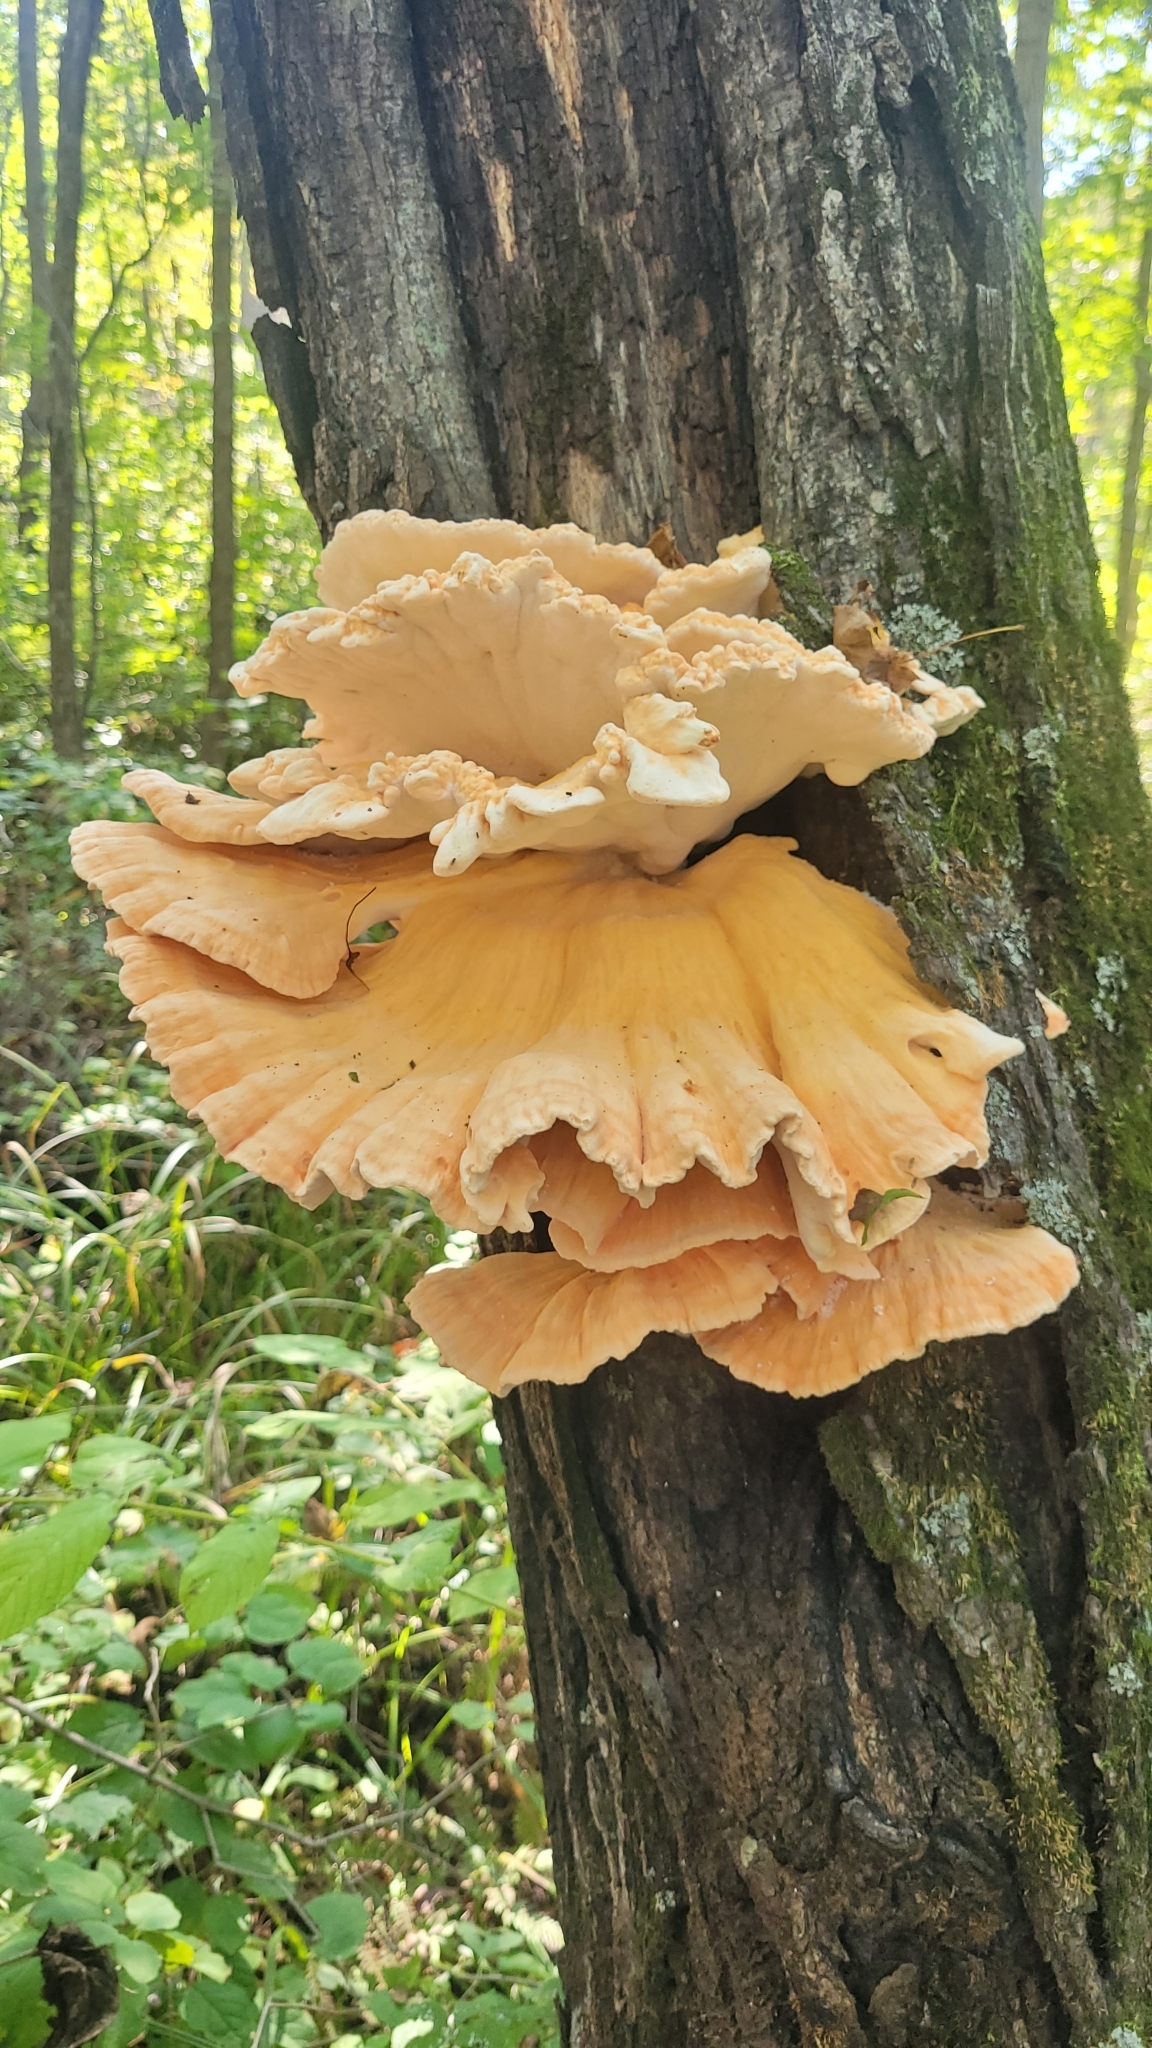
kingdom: Fungi
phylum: Basidiomycota
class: Agaricomycetes
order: Polyporales
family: Laetiporaceae
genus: Laetiporus
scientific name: Laetiporus sulphureus
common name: Chicken of the woods
